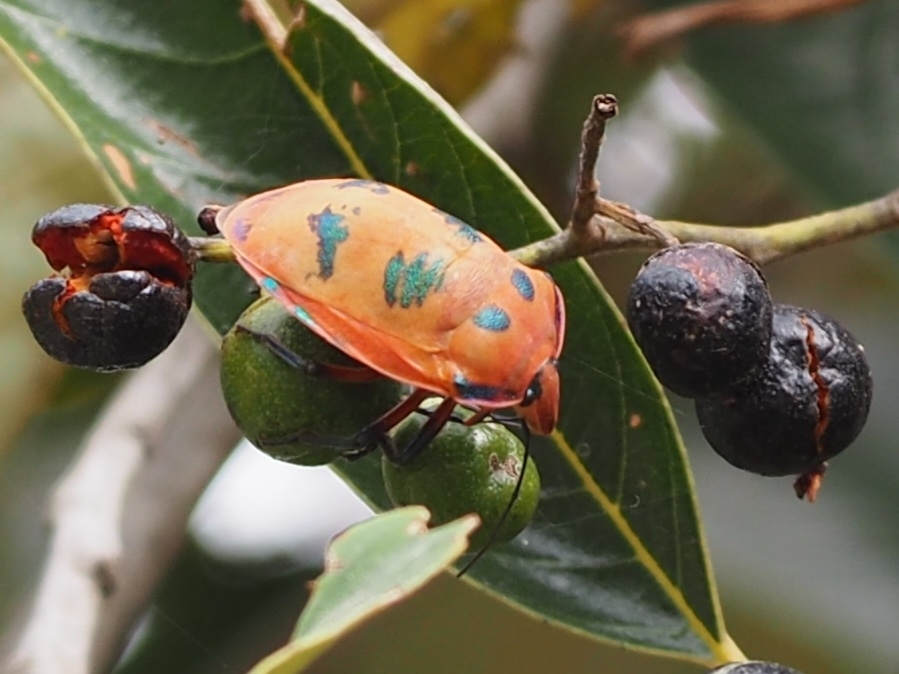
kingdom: Animalia
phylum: Arthropoda
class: Insecta
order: Hemiptera
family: Scutelleridae
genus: Tectocoris
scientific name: Tectocoris diophthalmus
